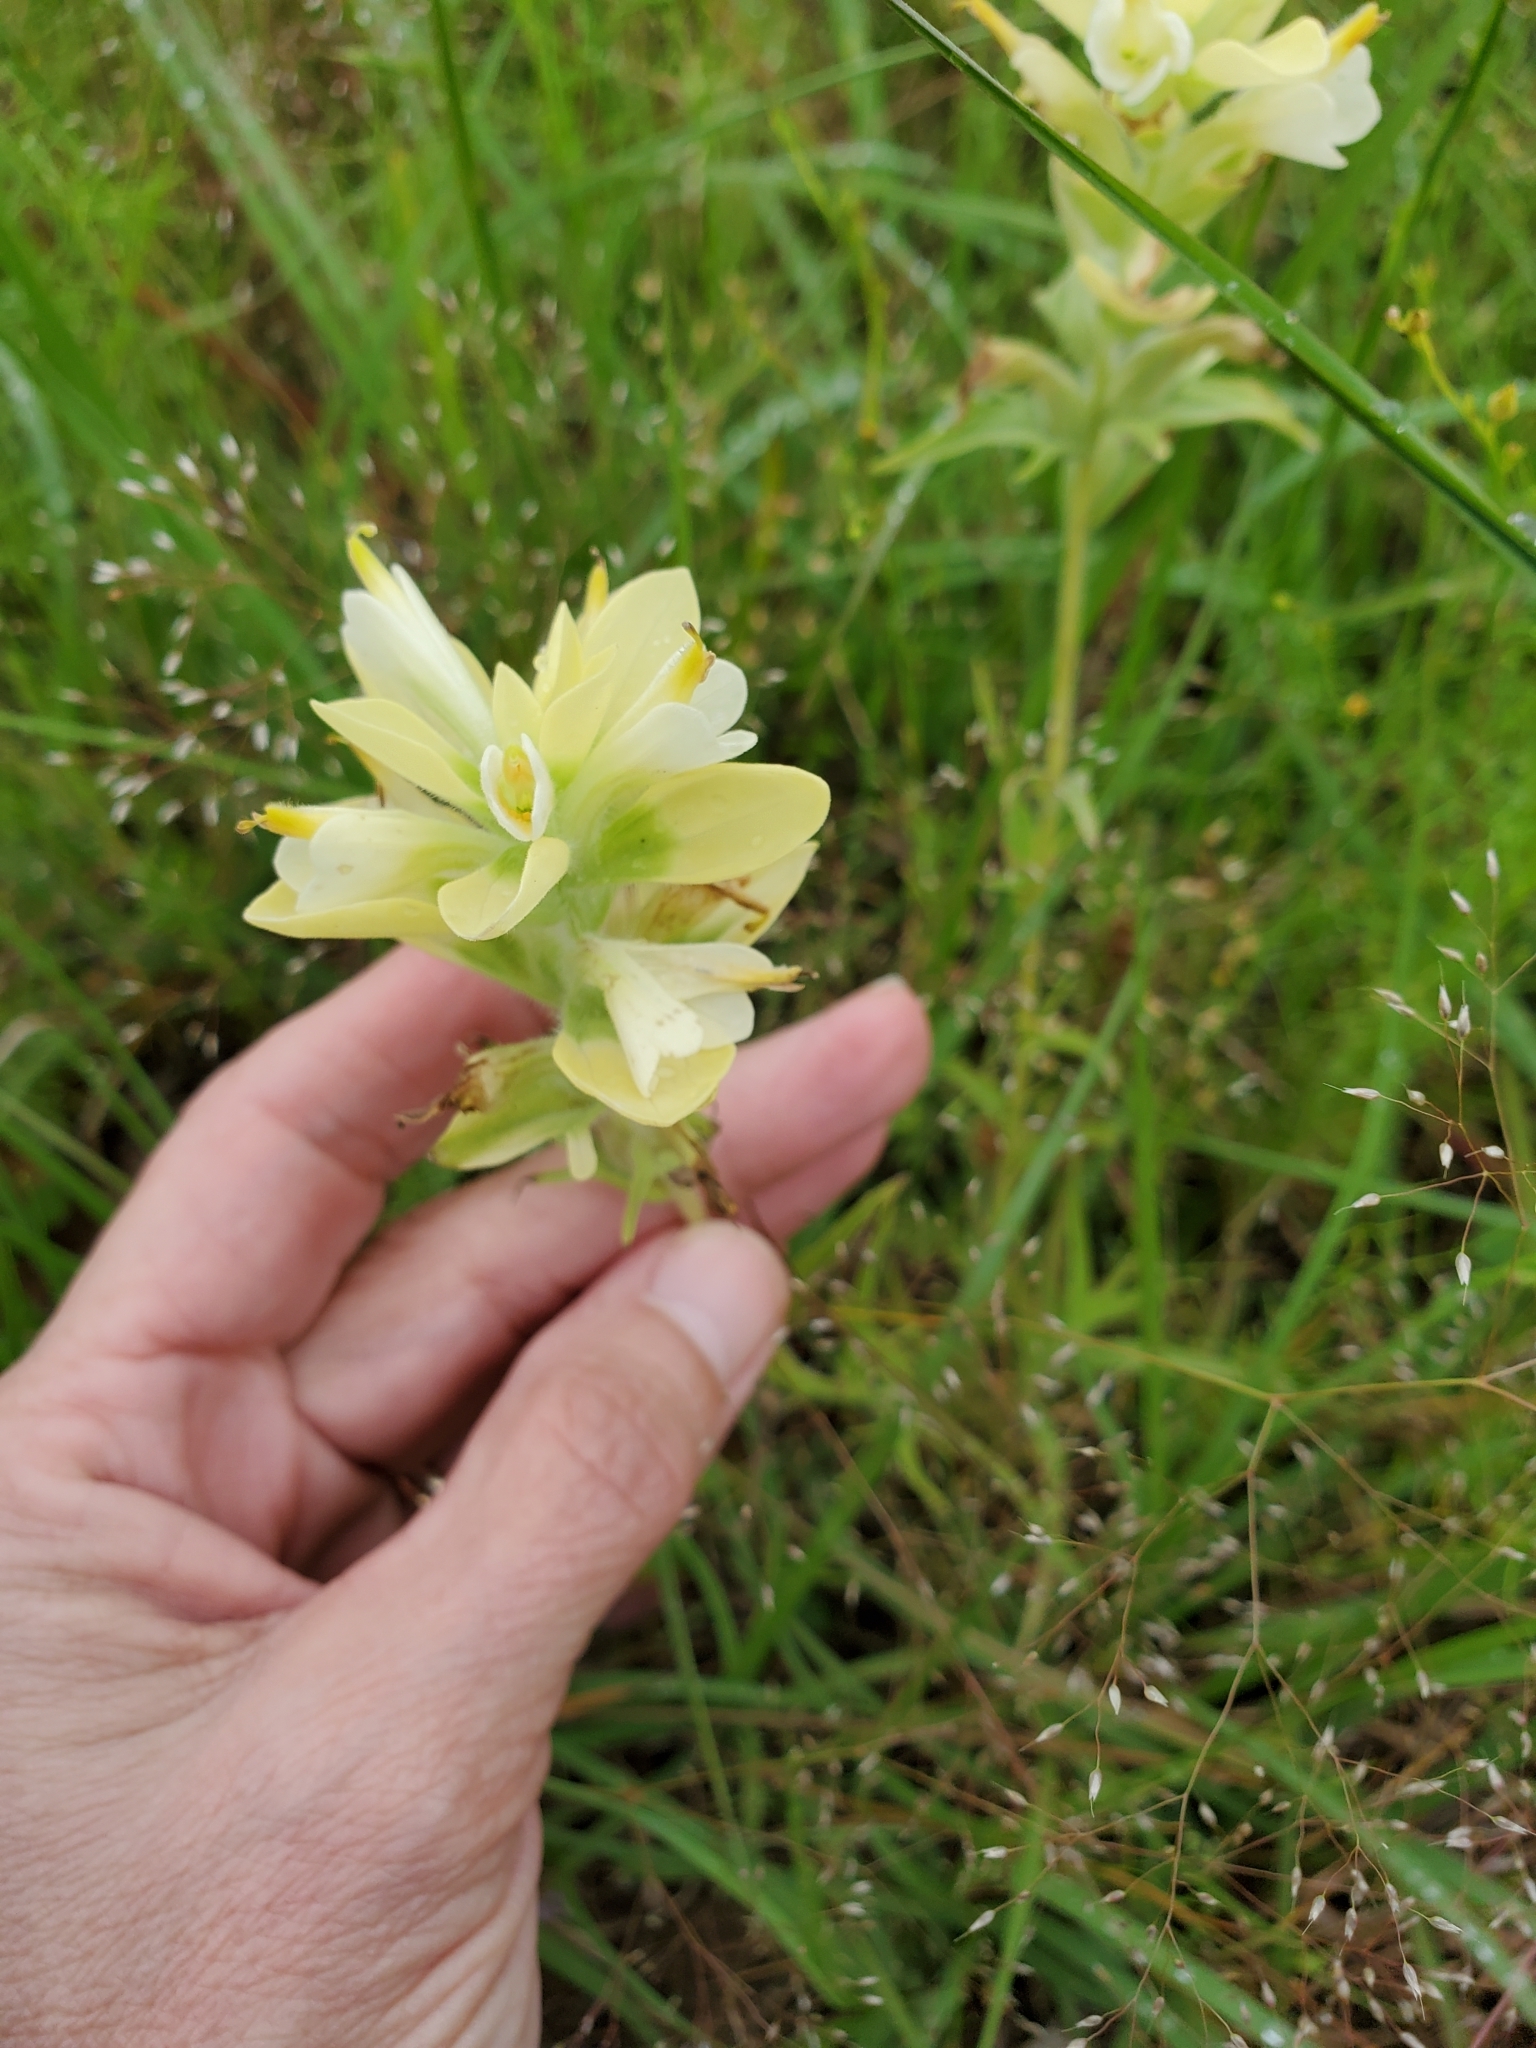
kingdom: Plantae
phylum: Tracheophyta
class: Magnoliopsida
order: Lamiales
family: Orobanchaceae
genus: Castilleja
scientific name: Castilleja indivisa
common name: Texas paintbrush
